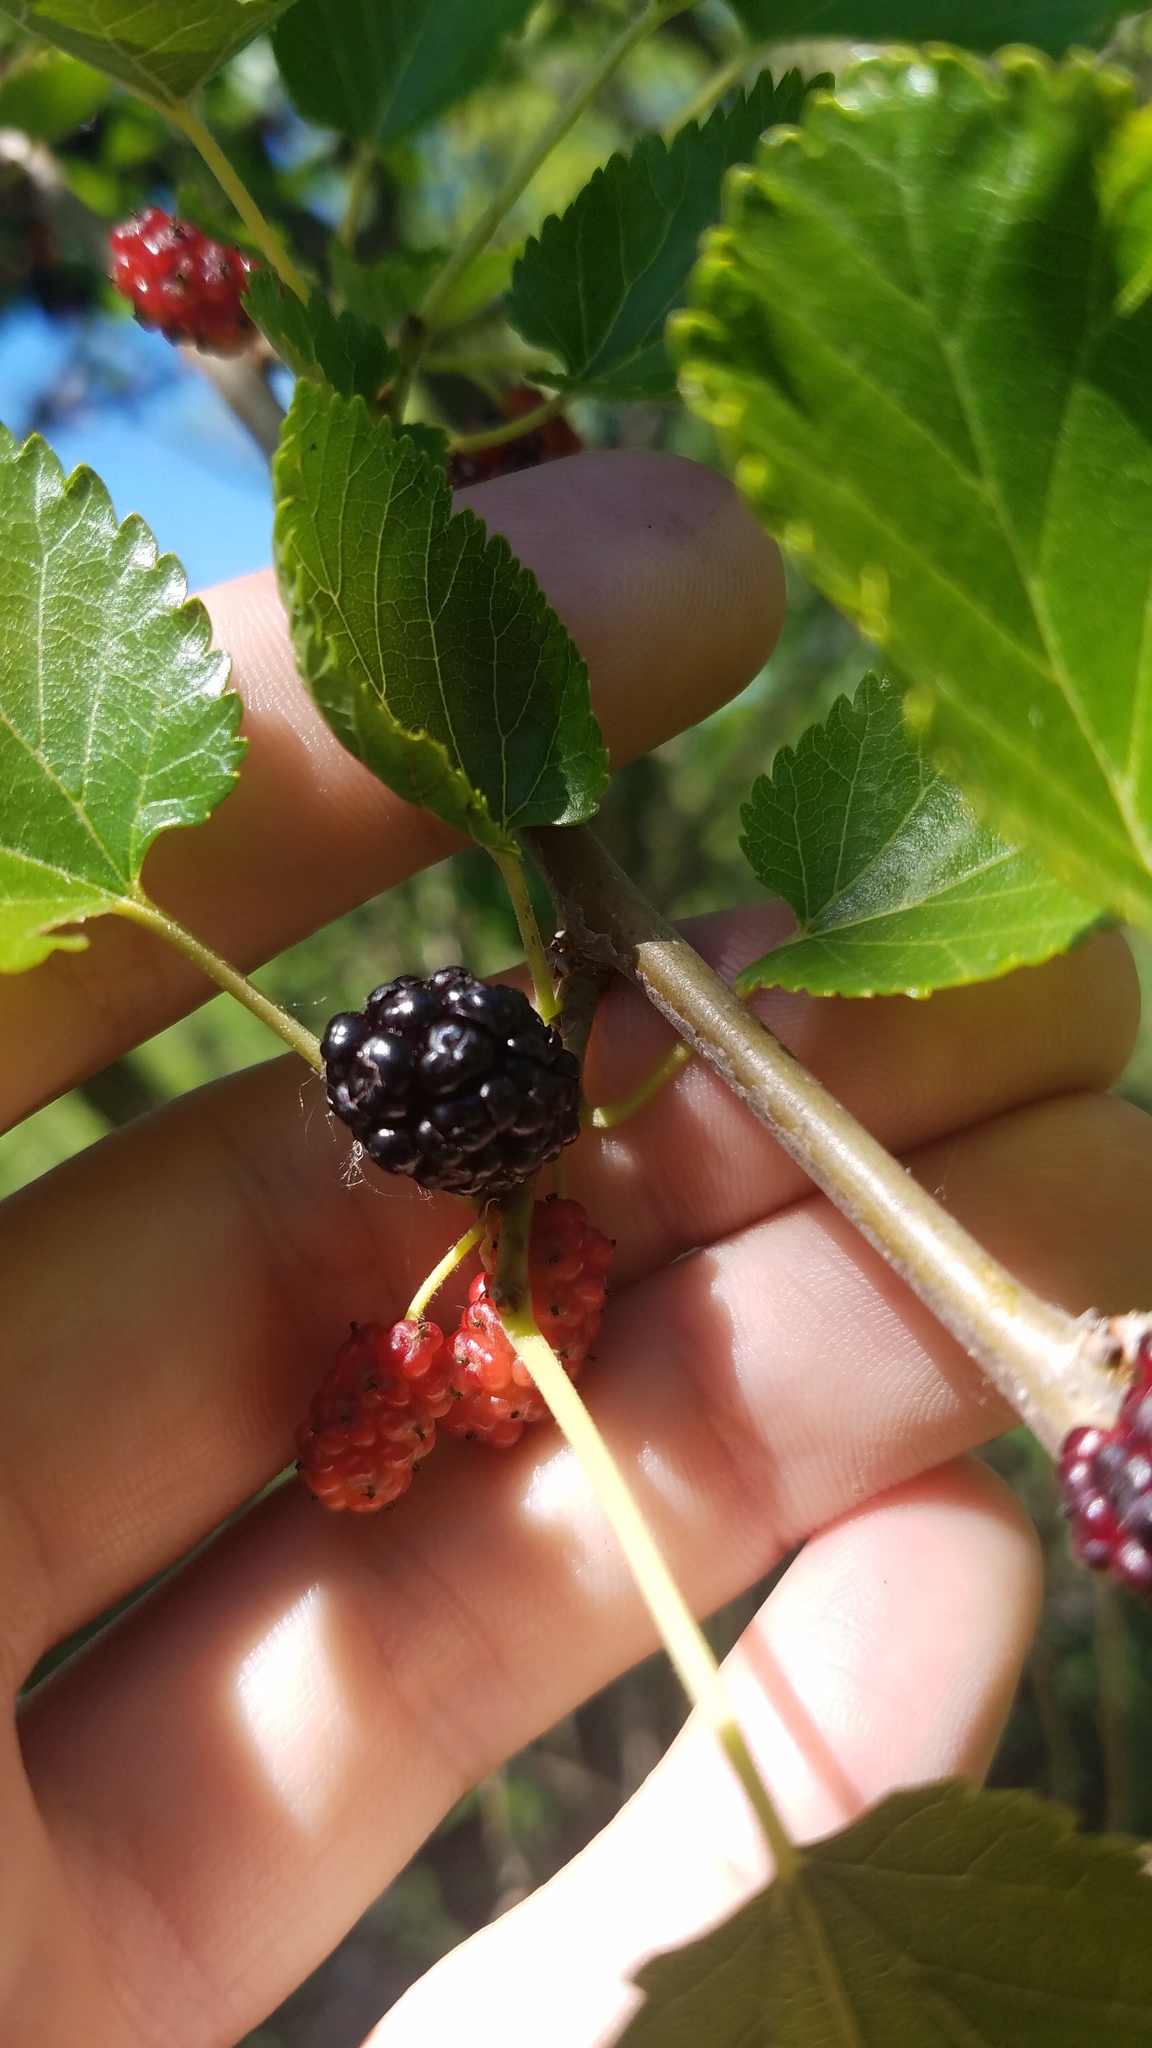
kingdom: Plantae
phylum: Tracheophyta
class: Magnoliopsida
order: Rosales
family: Moraceae
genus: Morus
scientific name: Morus alba
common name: White mulberry
